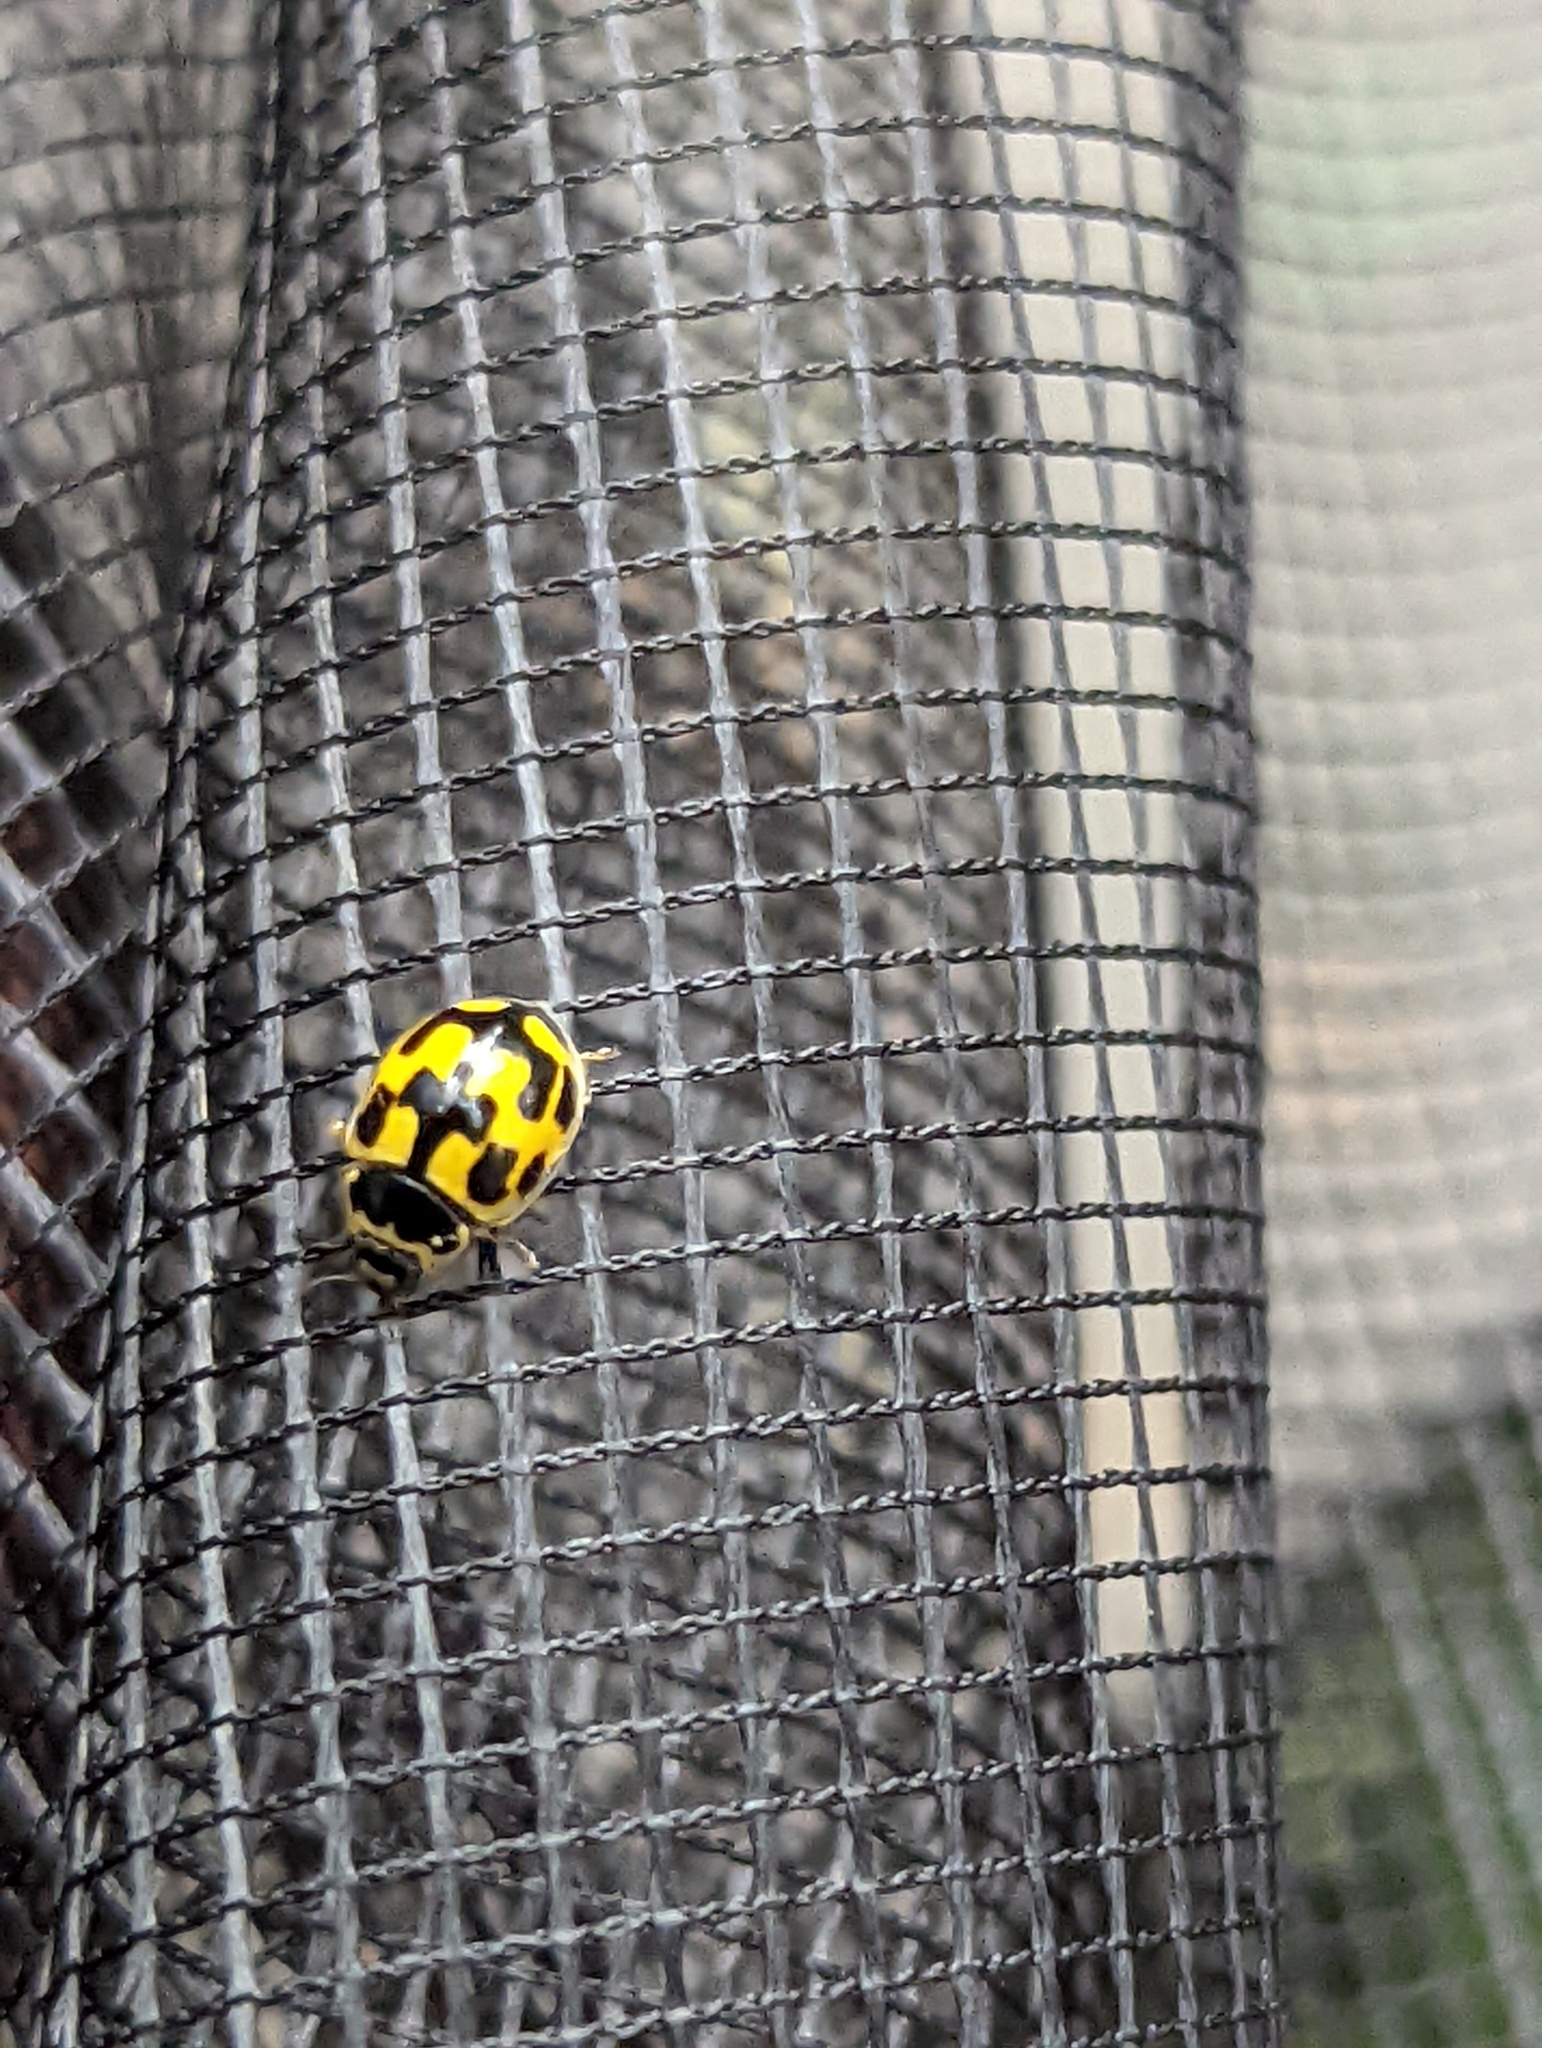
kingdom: Animalia
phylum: Arthropoda
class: Insecta
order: Coleoptera
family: Coccinellidae
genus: Propylaea
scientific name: Propylaea quatuordecimpunctata
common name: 14-spotted ladybird beetle
